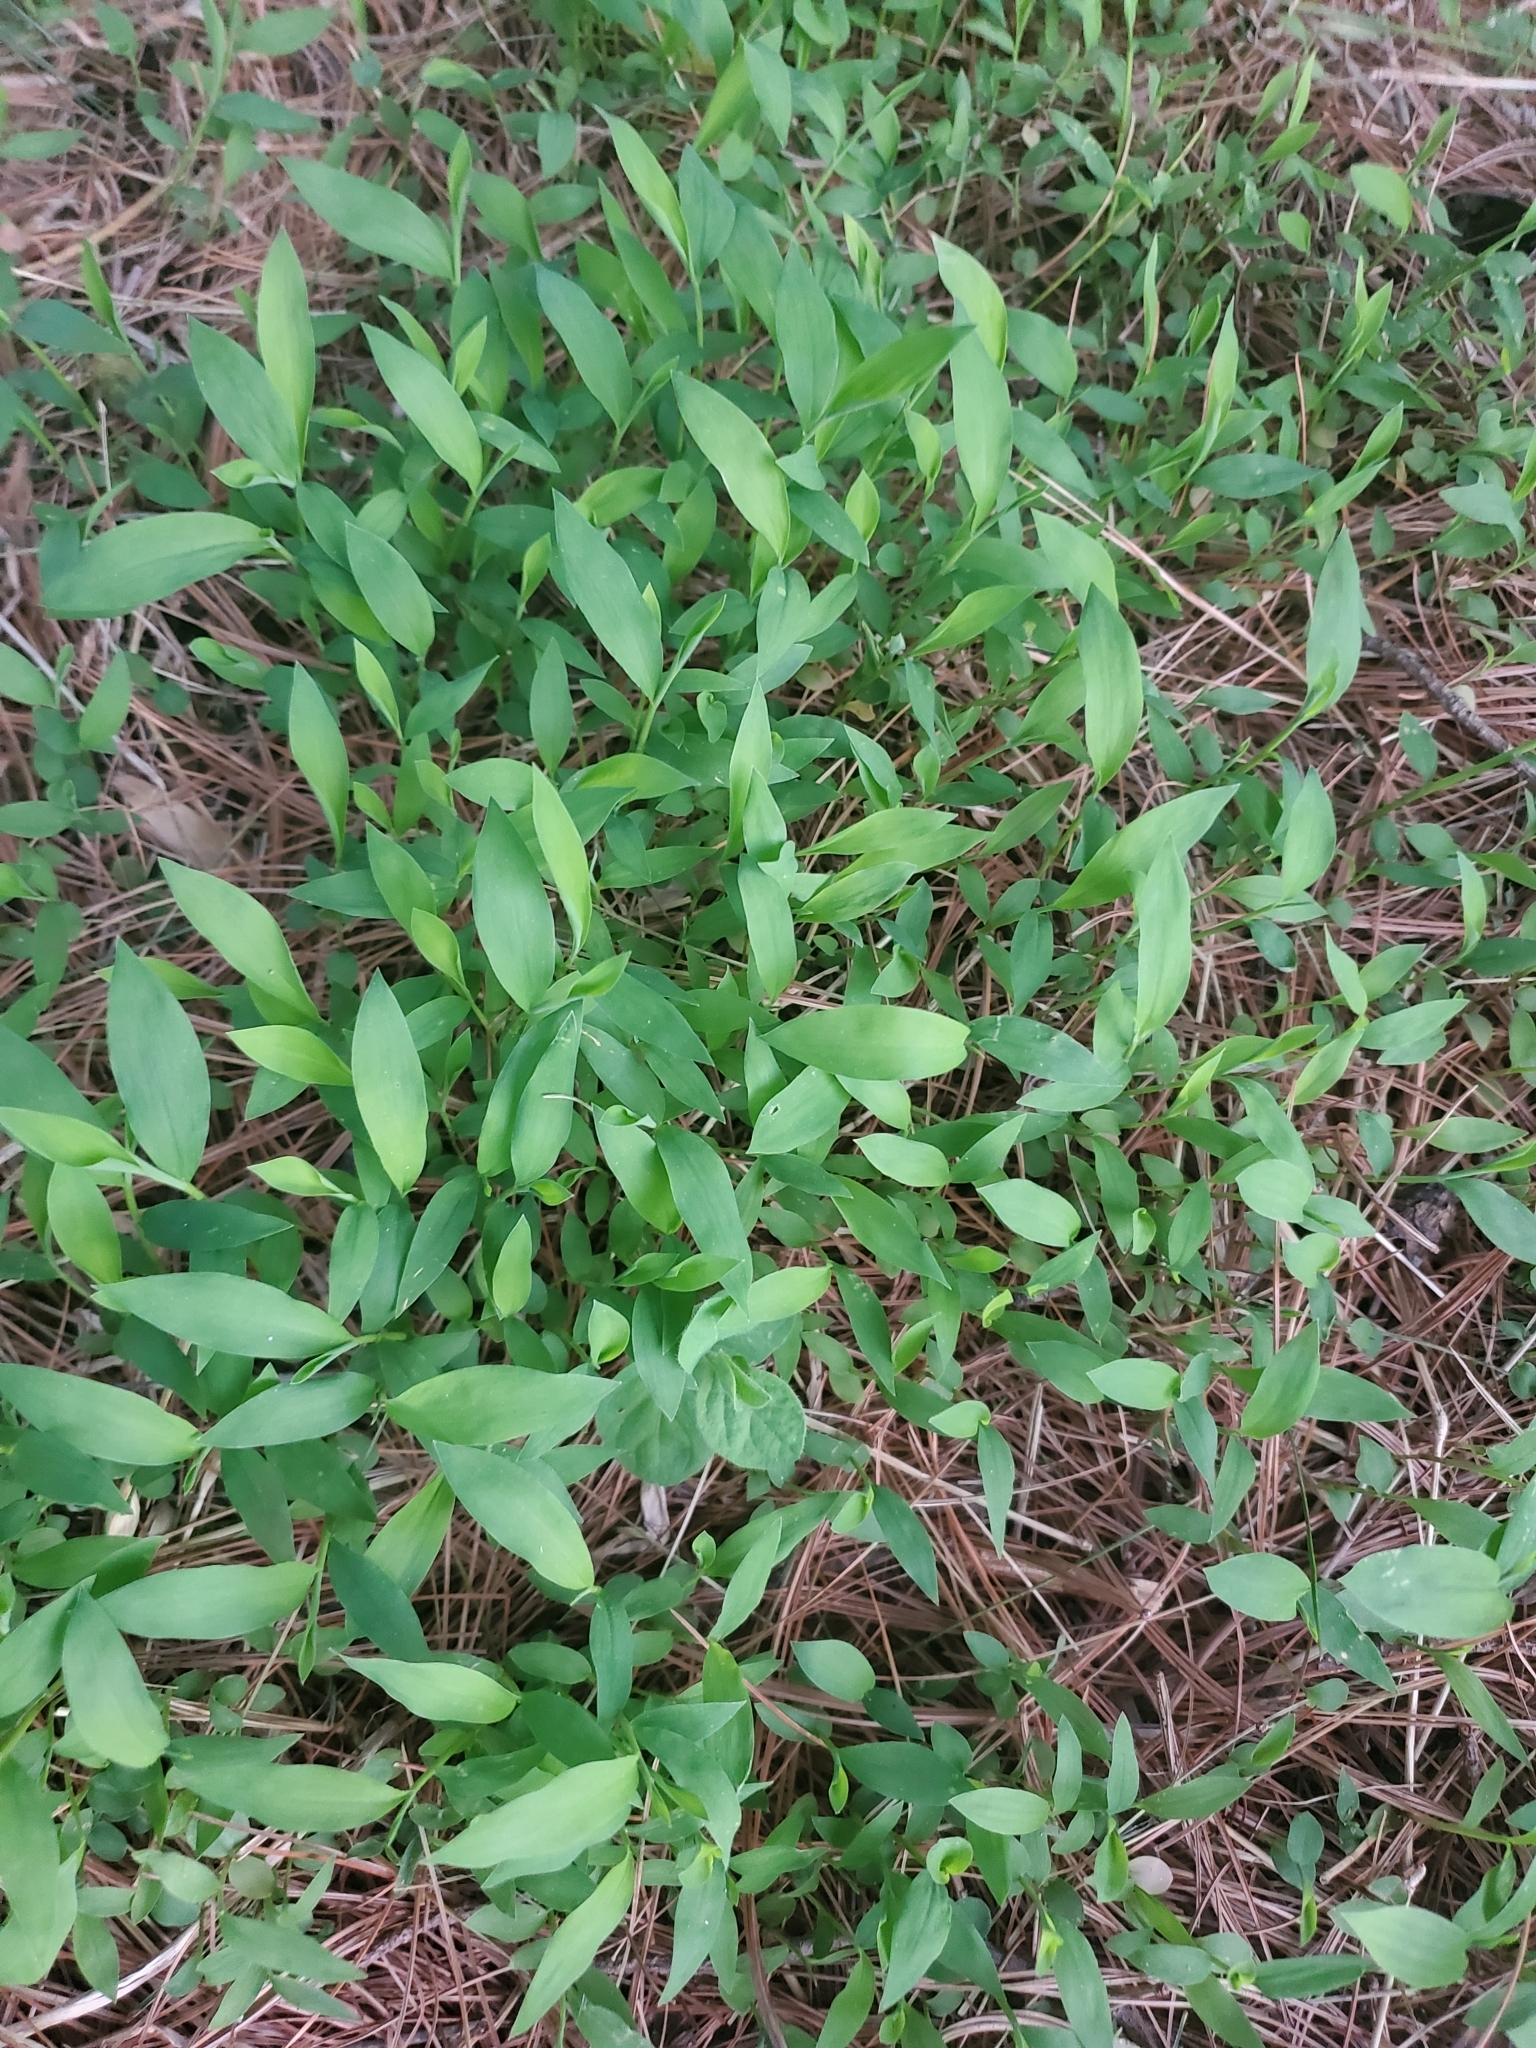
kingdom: Plantae
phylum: Tracheophyta
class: Liliopsida
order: Poales
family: Poaceae
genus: Microstegium
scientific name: Microstegium vimineum
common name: Japanese stiltgrass
